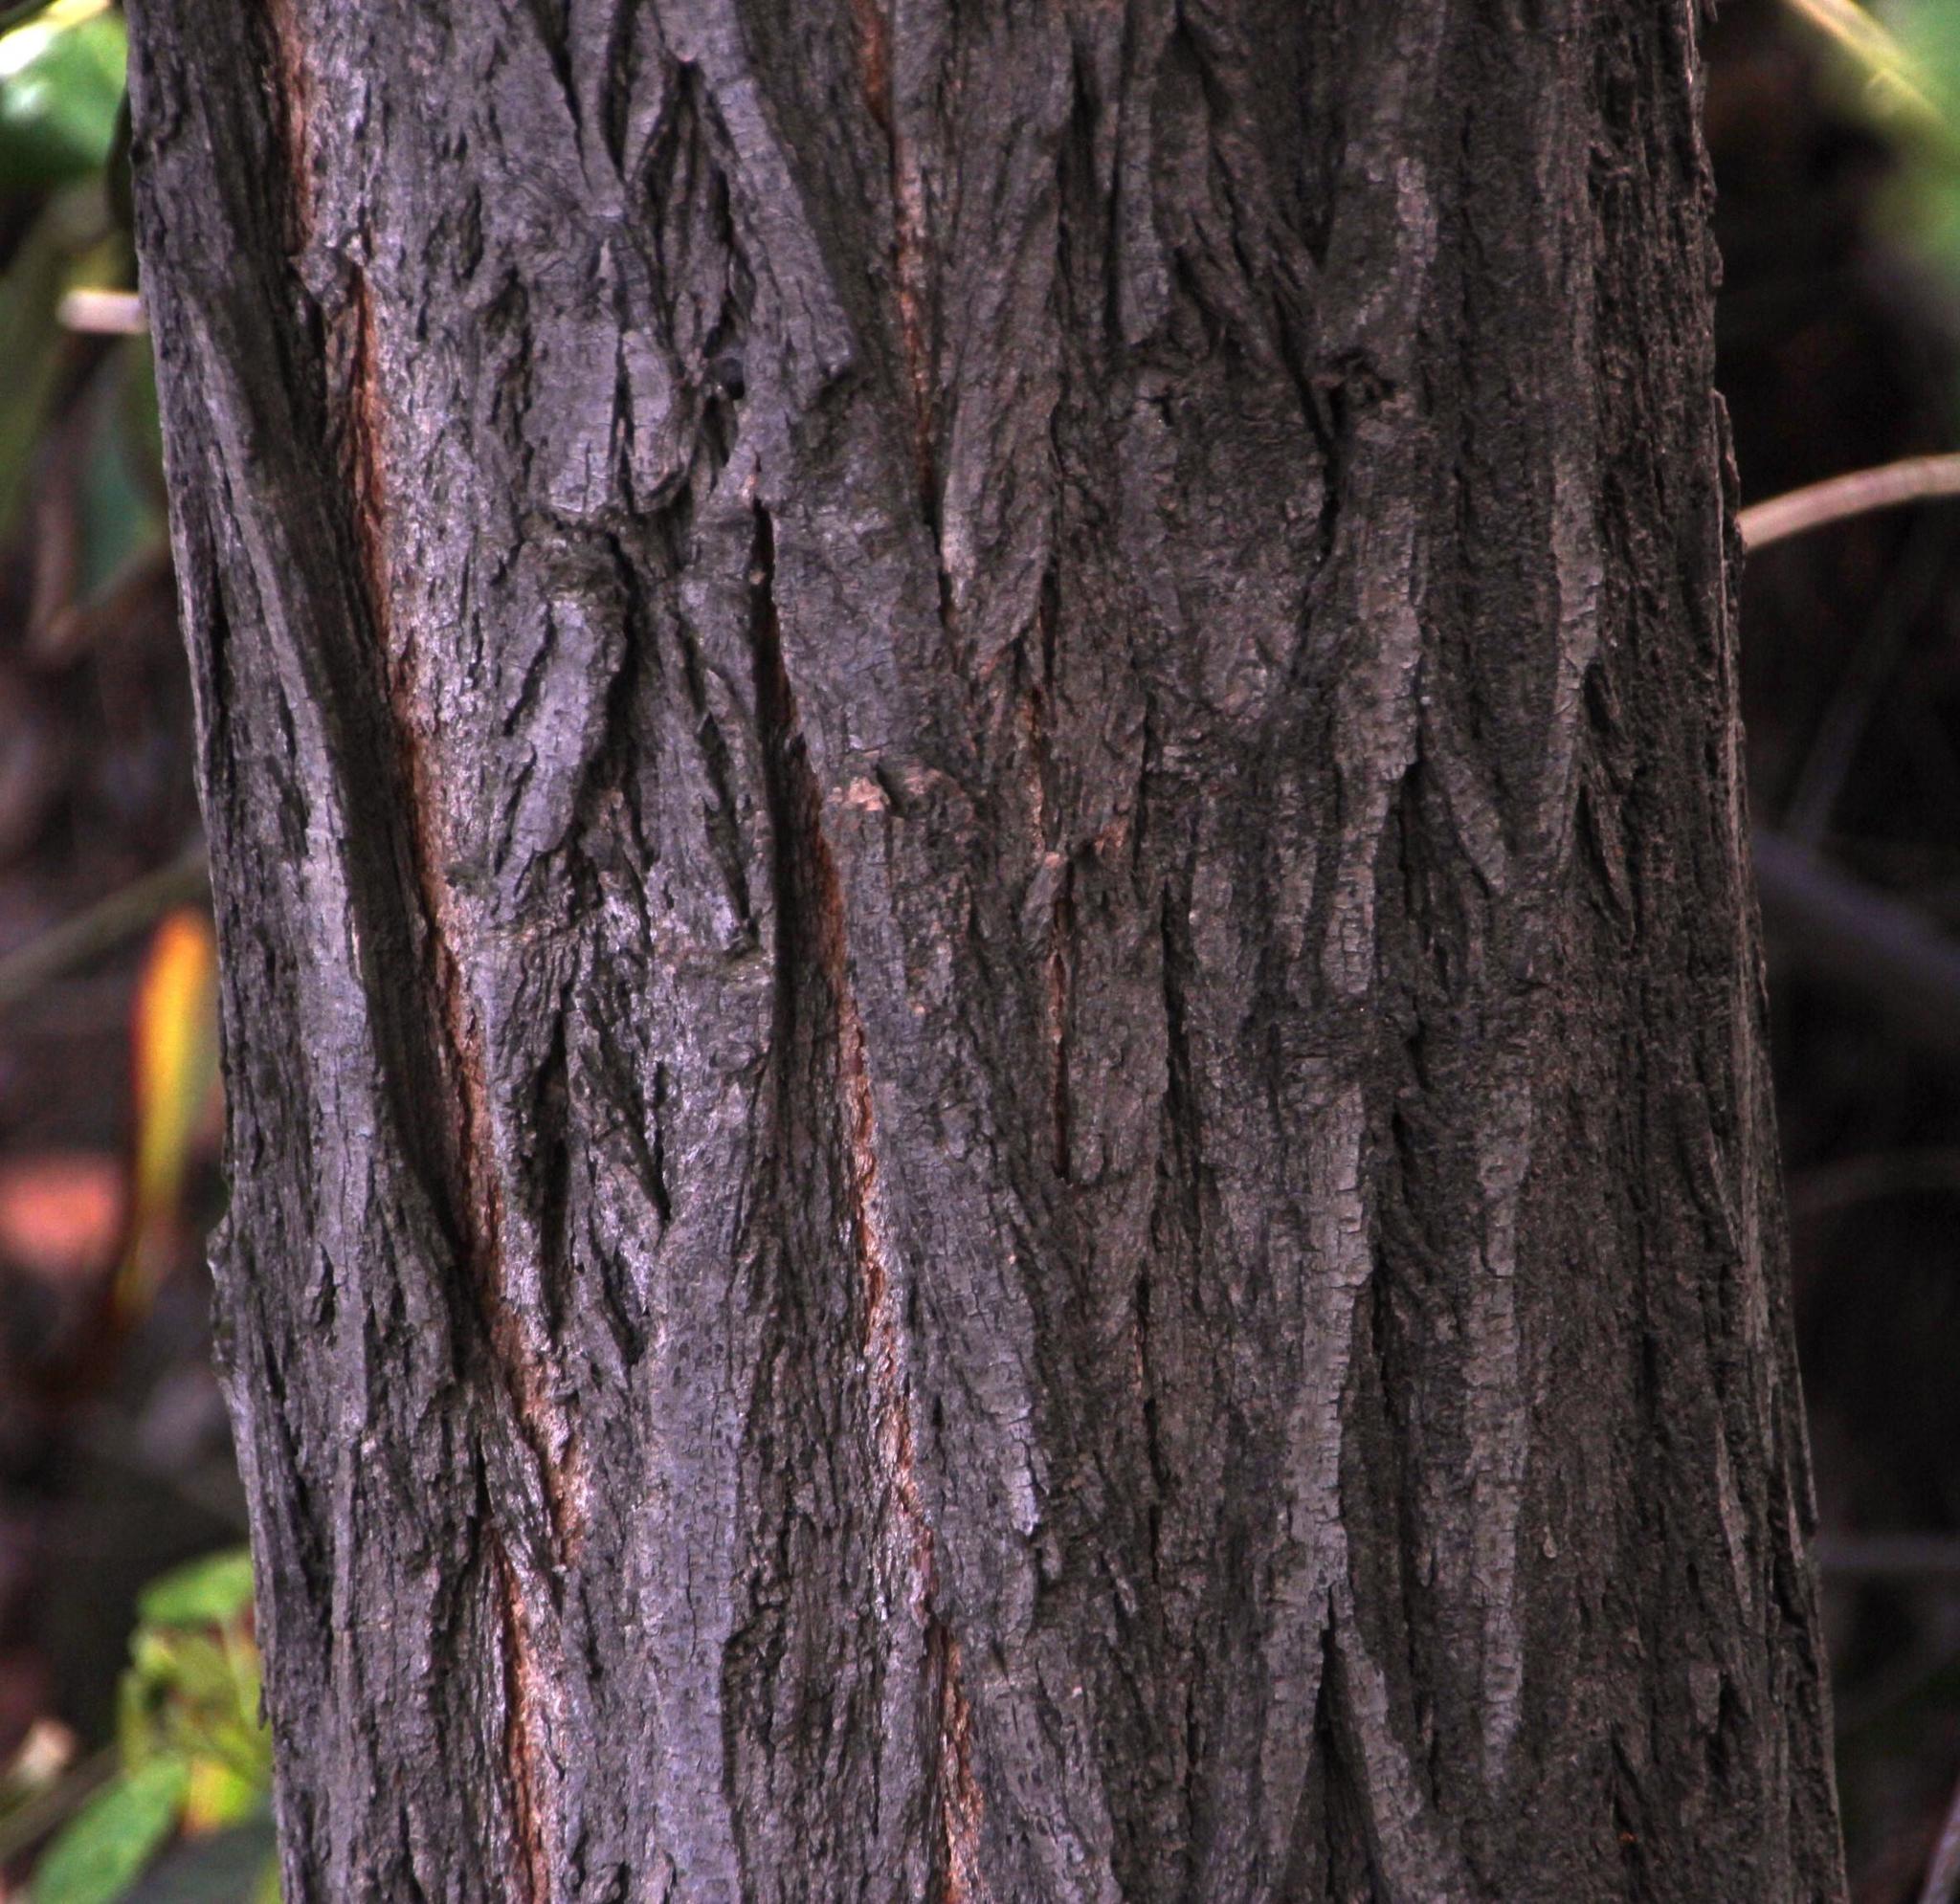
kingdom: Plantae
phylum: Tracheophyta
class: Magnoliopsida
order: Oxalidales
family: Elaeocarpaceae
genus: Aristotelia
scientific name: Aristotelia chilensis
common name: Maquei
